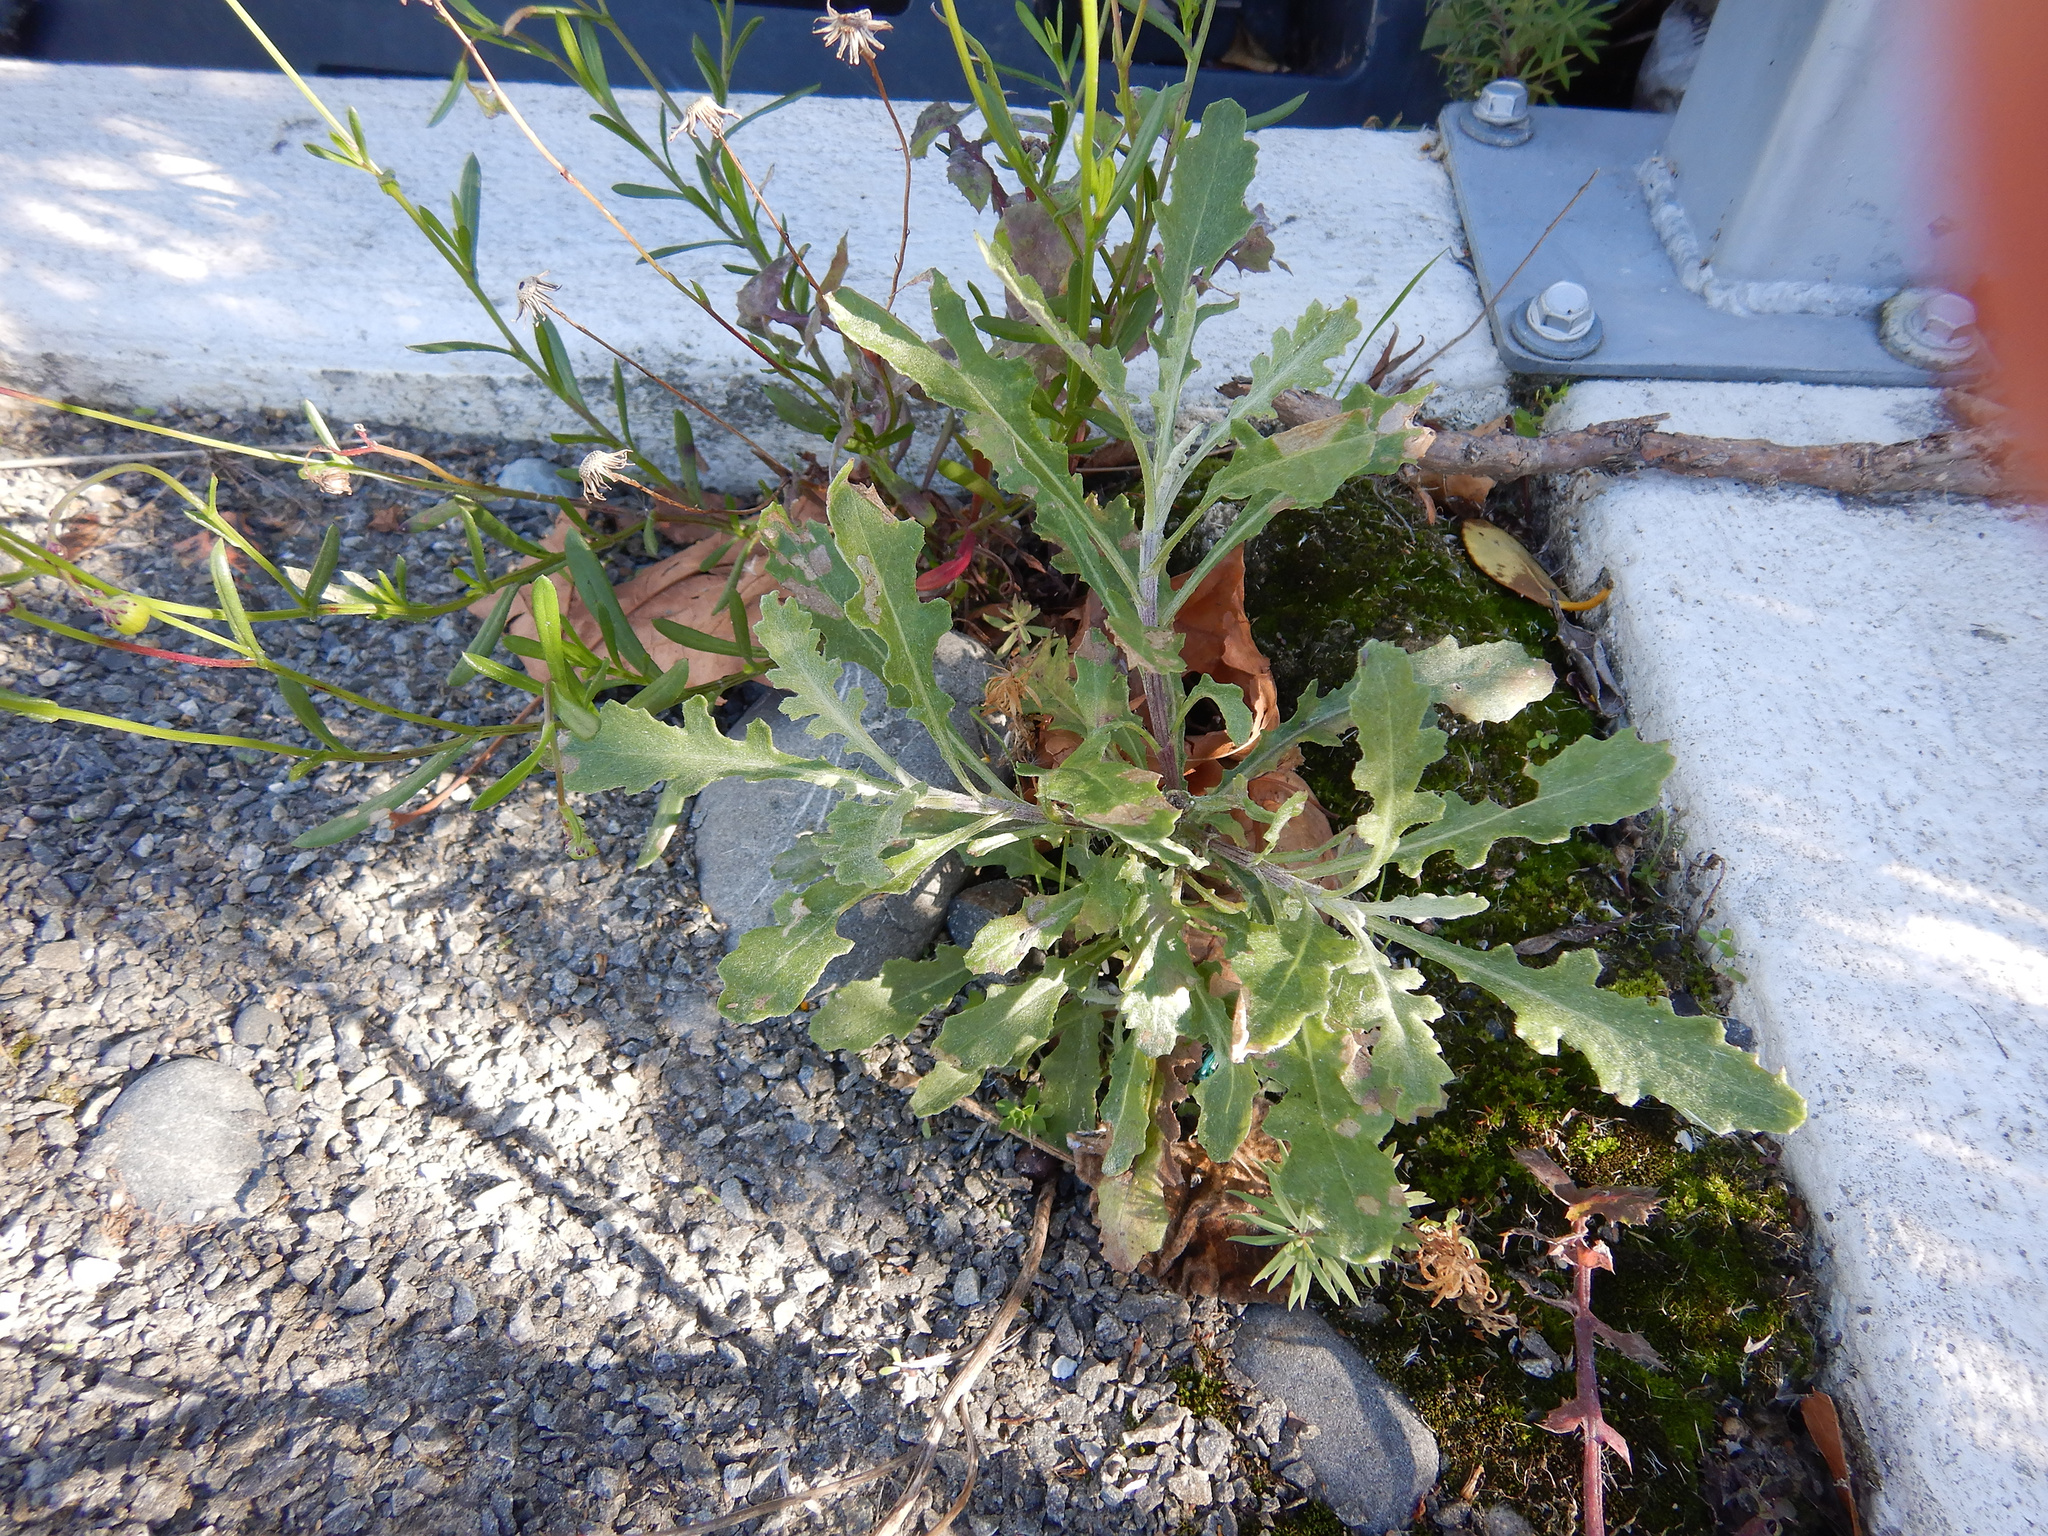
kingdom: Plantae
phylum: Tracheophyta
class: Magnoliopsida
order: Asterales
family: Asteraceae
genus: Senecio
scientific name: Senecio glomeratus
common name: Cutleaf burnweed
